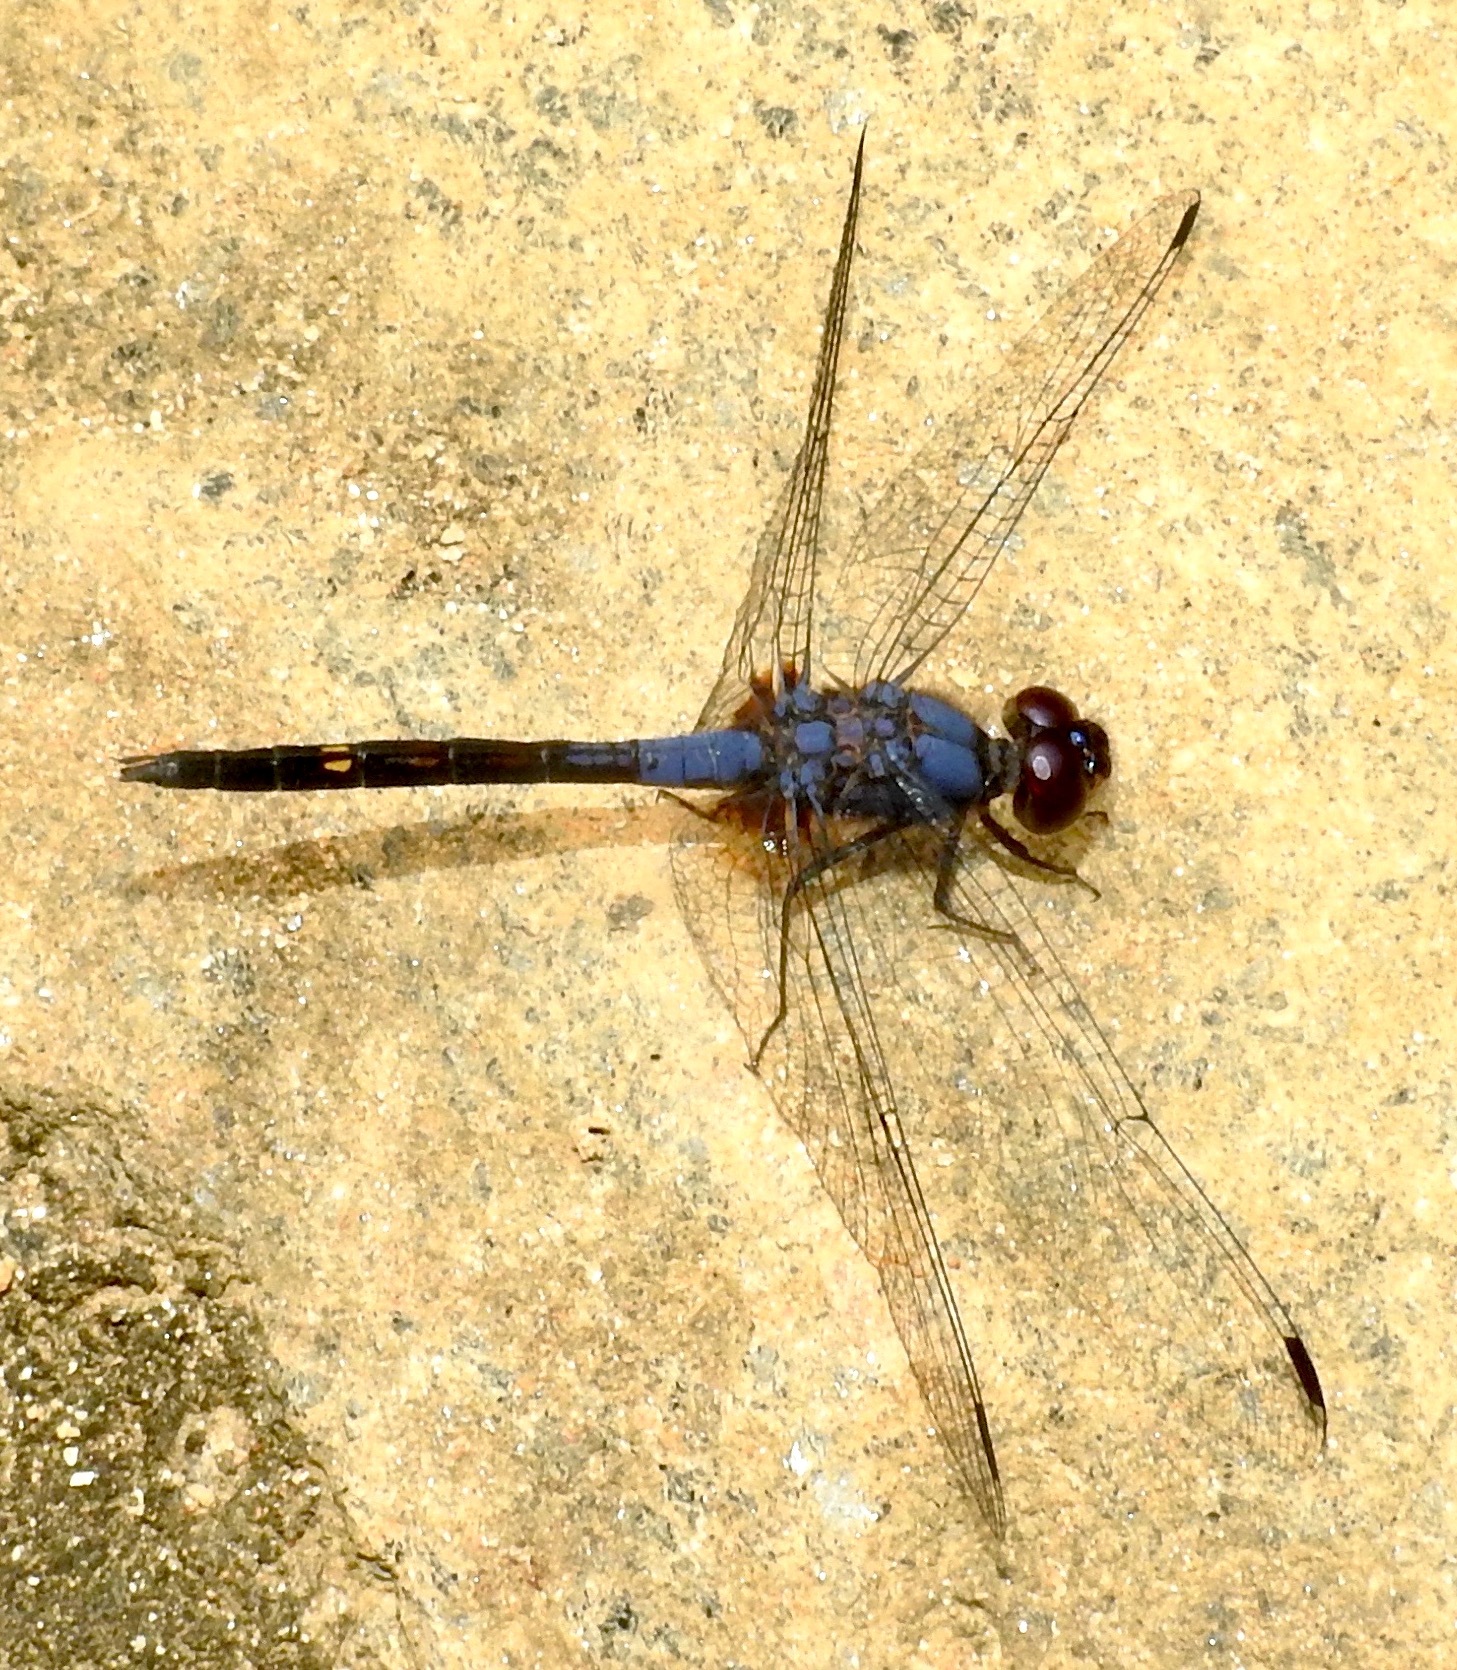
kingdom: Animalia
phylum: Arthropoda
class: Insecta
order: Odonata
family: Libellulidae
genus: Trithemis
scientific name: Trithemis festiva
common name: Indigo dropwing
